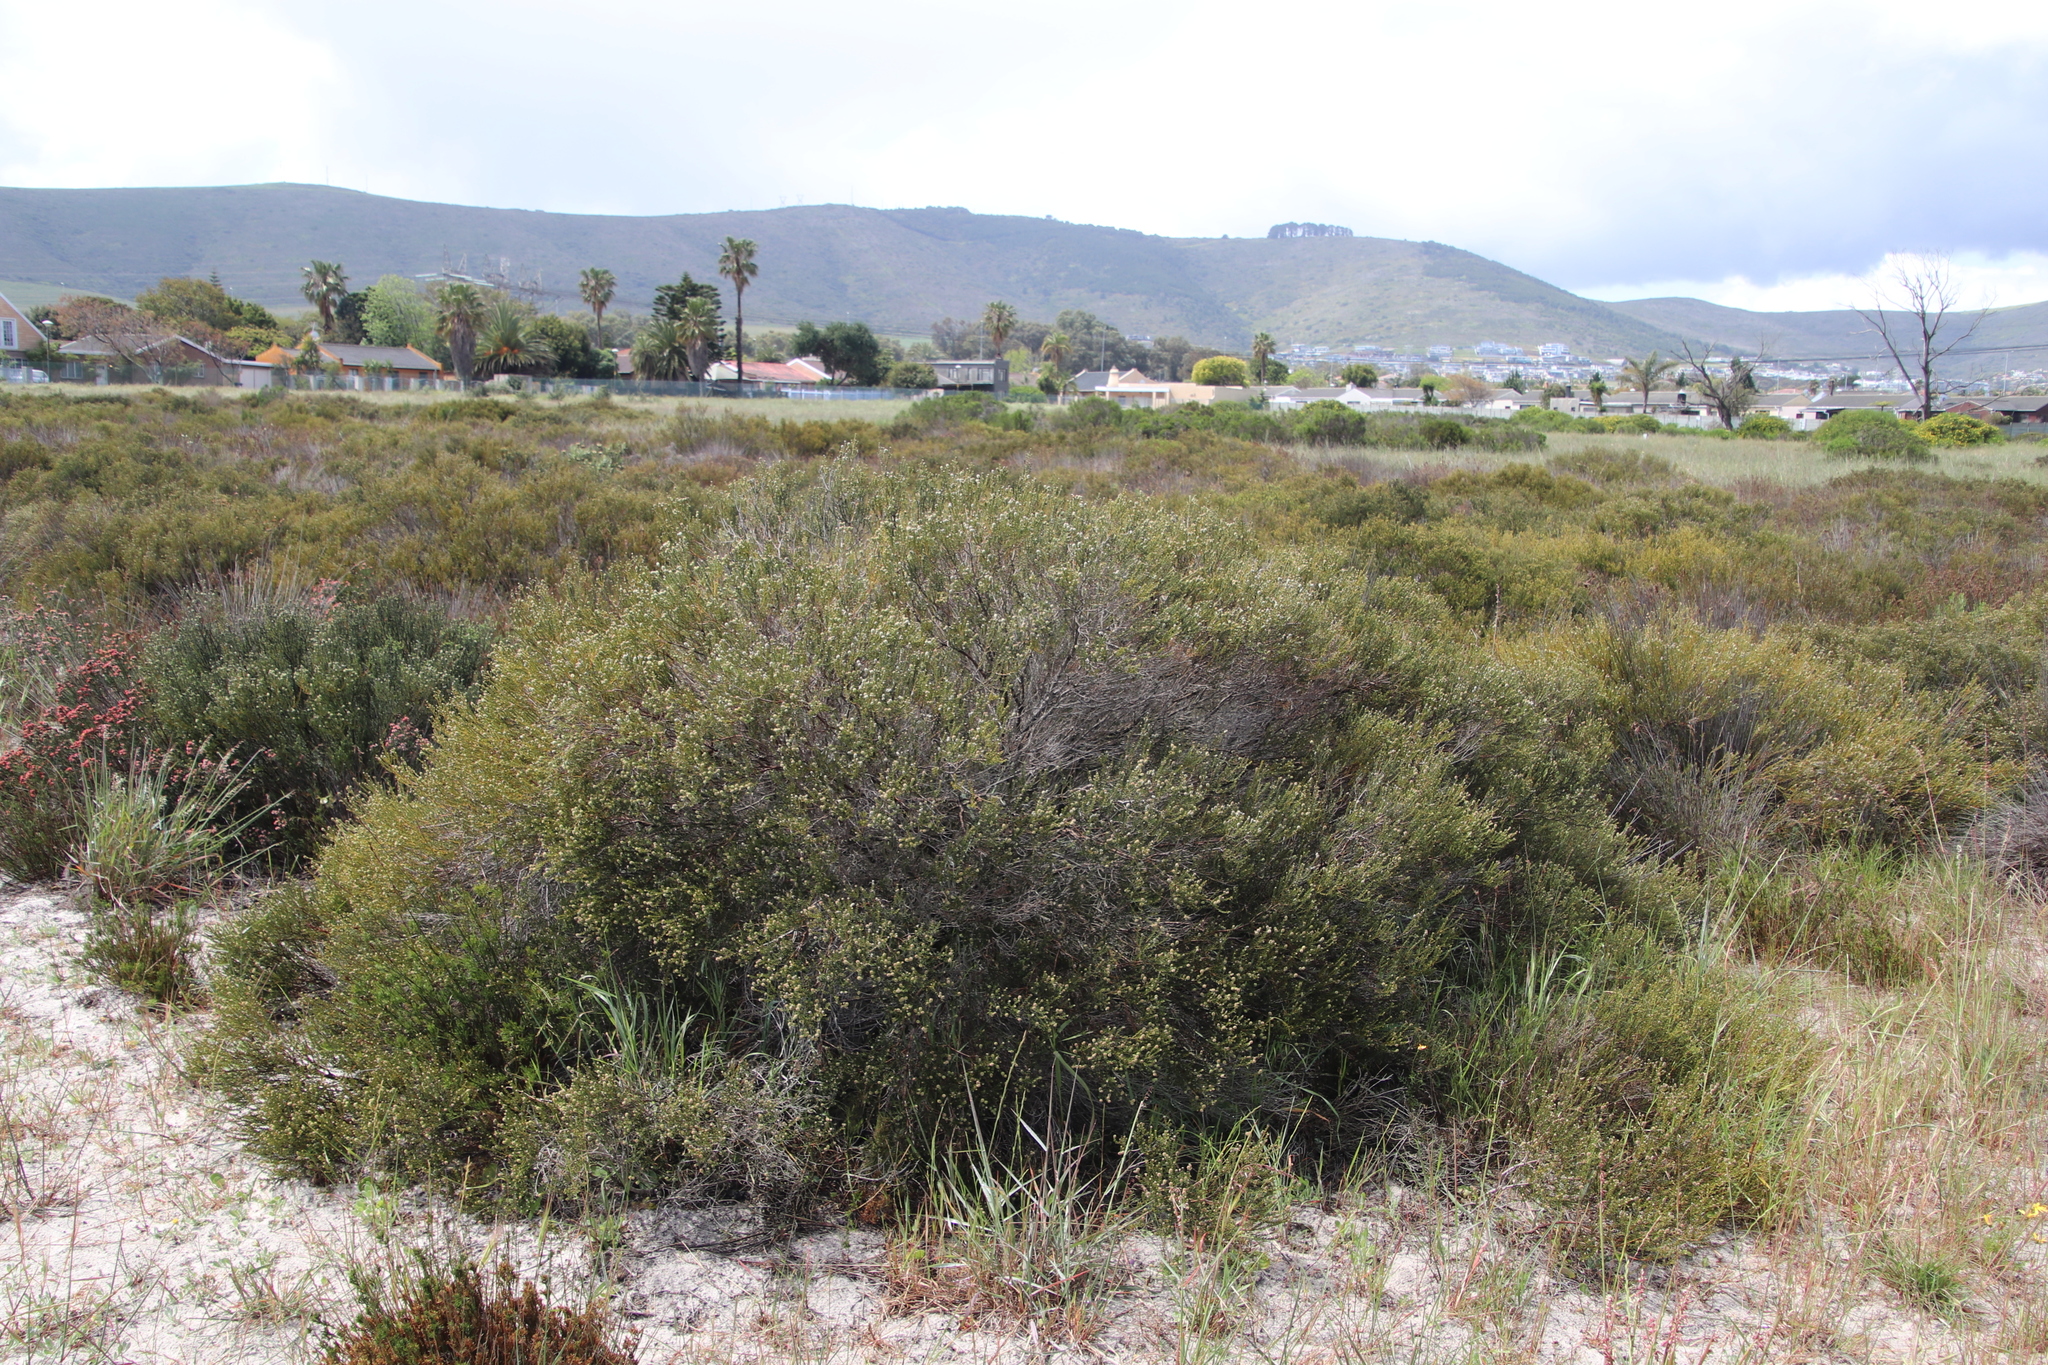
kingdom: Plantae
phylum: Tracheophyta
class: Magnoliopsida
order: Rosales
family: Rhamnaceae
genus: Phylica
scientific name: Phylica cephalantha
